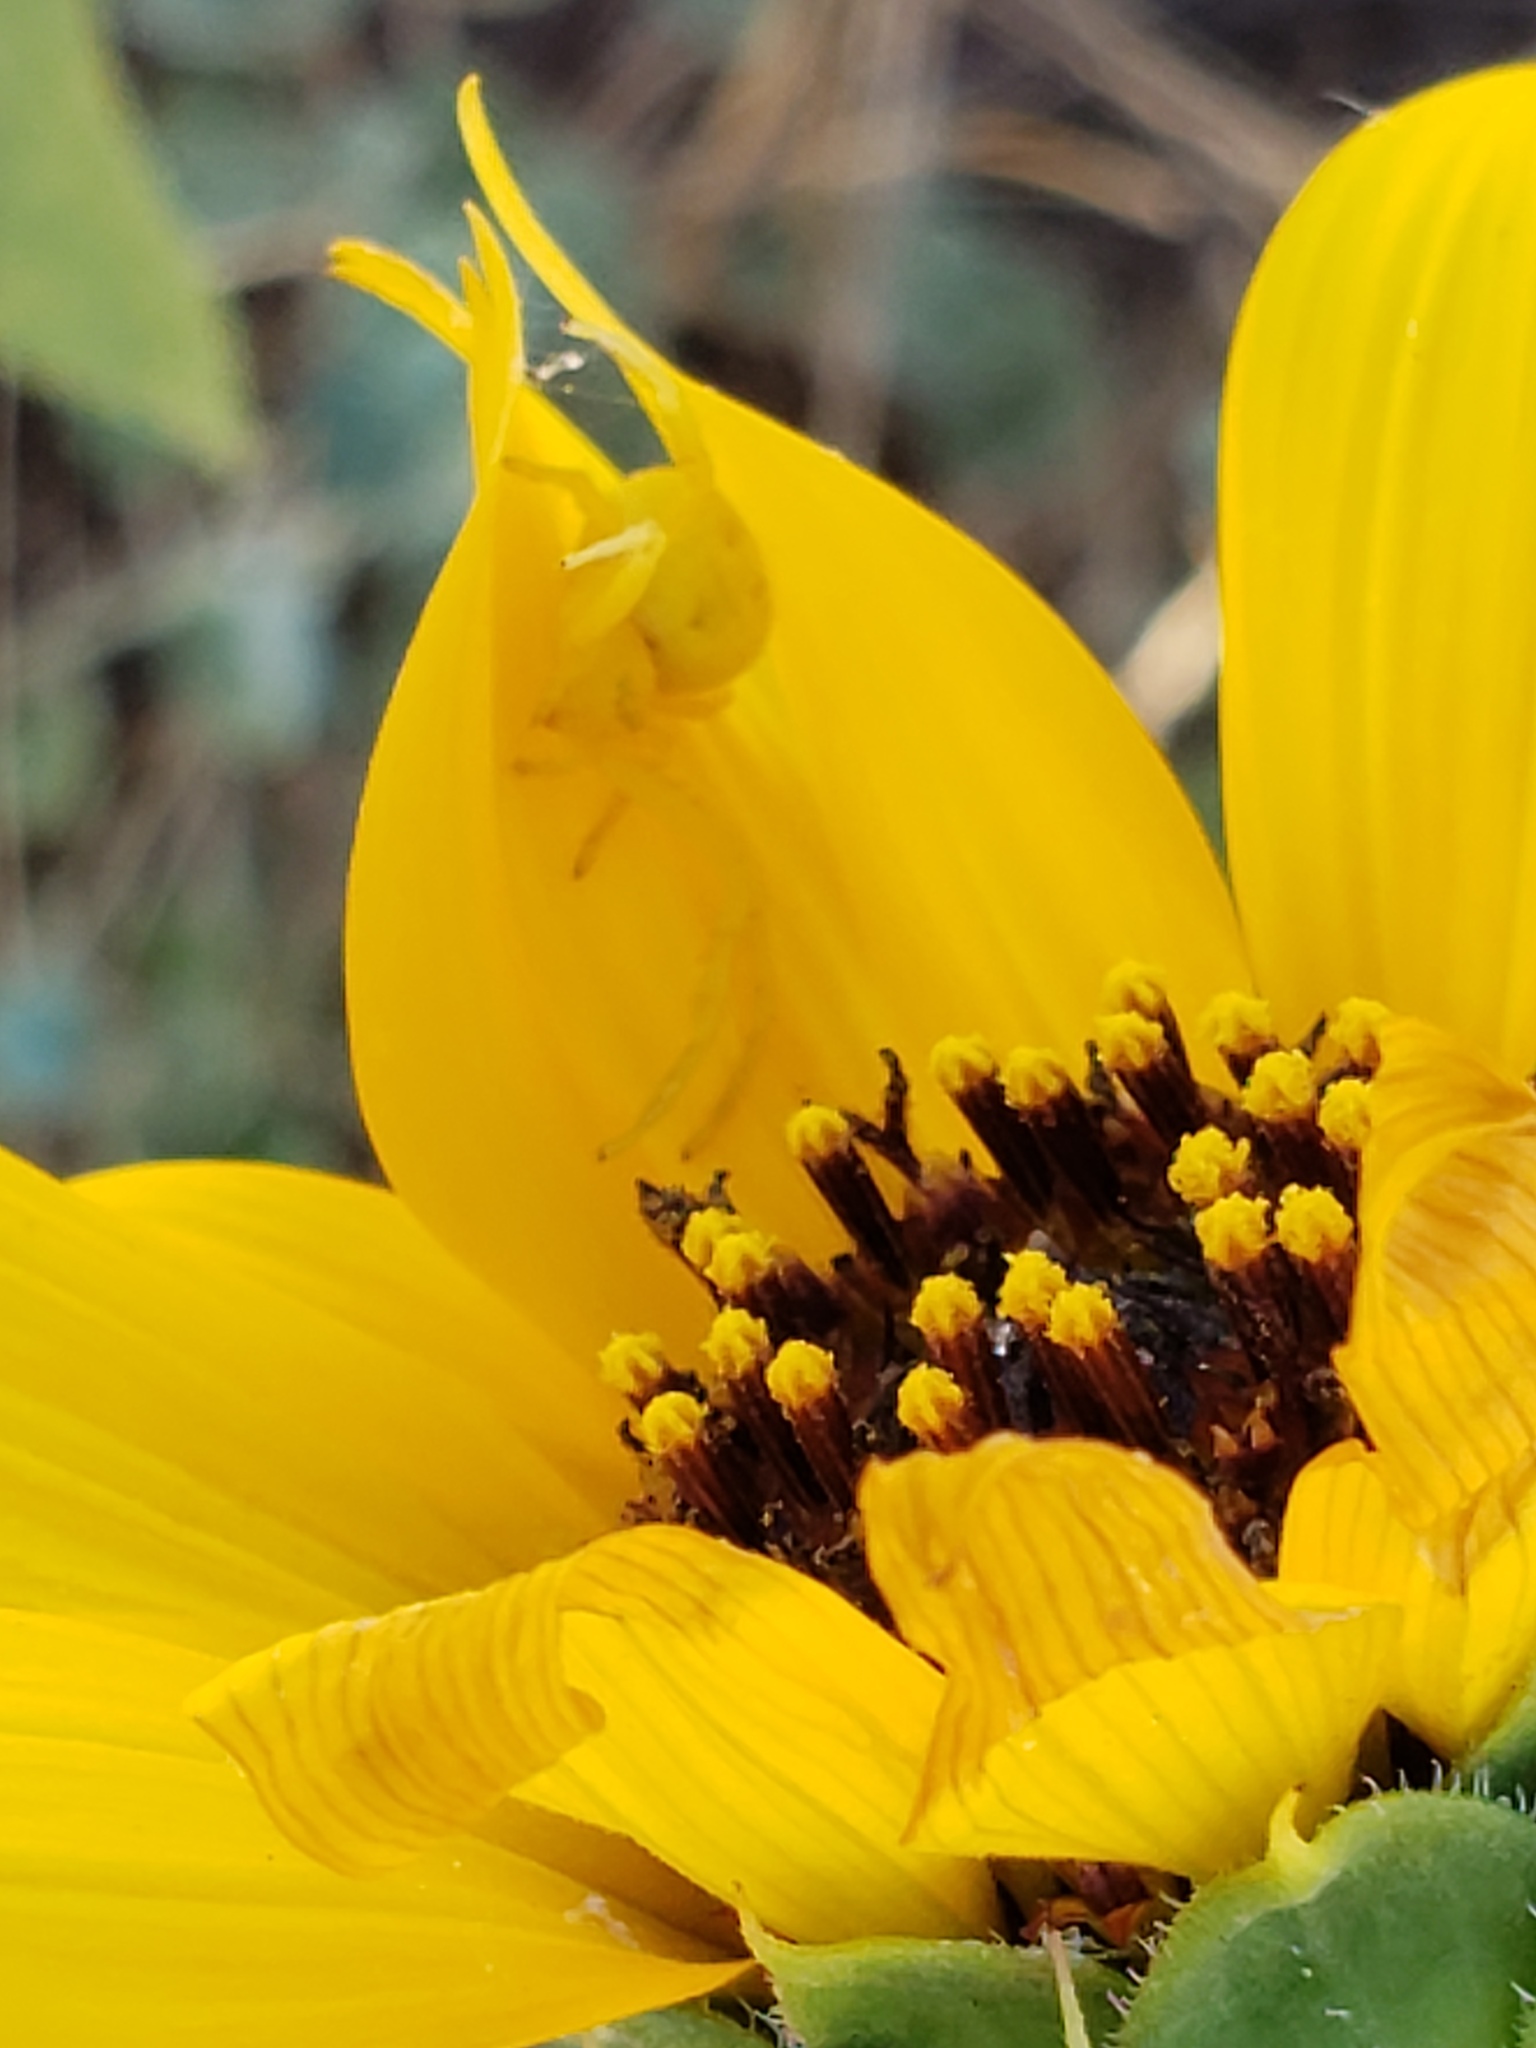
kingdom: Animalia
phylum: Arthropoda
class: Arachnida
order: Araneae
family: Thomisidae
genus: Misumena
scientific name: Misumena vatia
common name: Goldenrod crab spider
